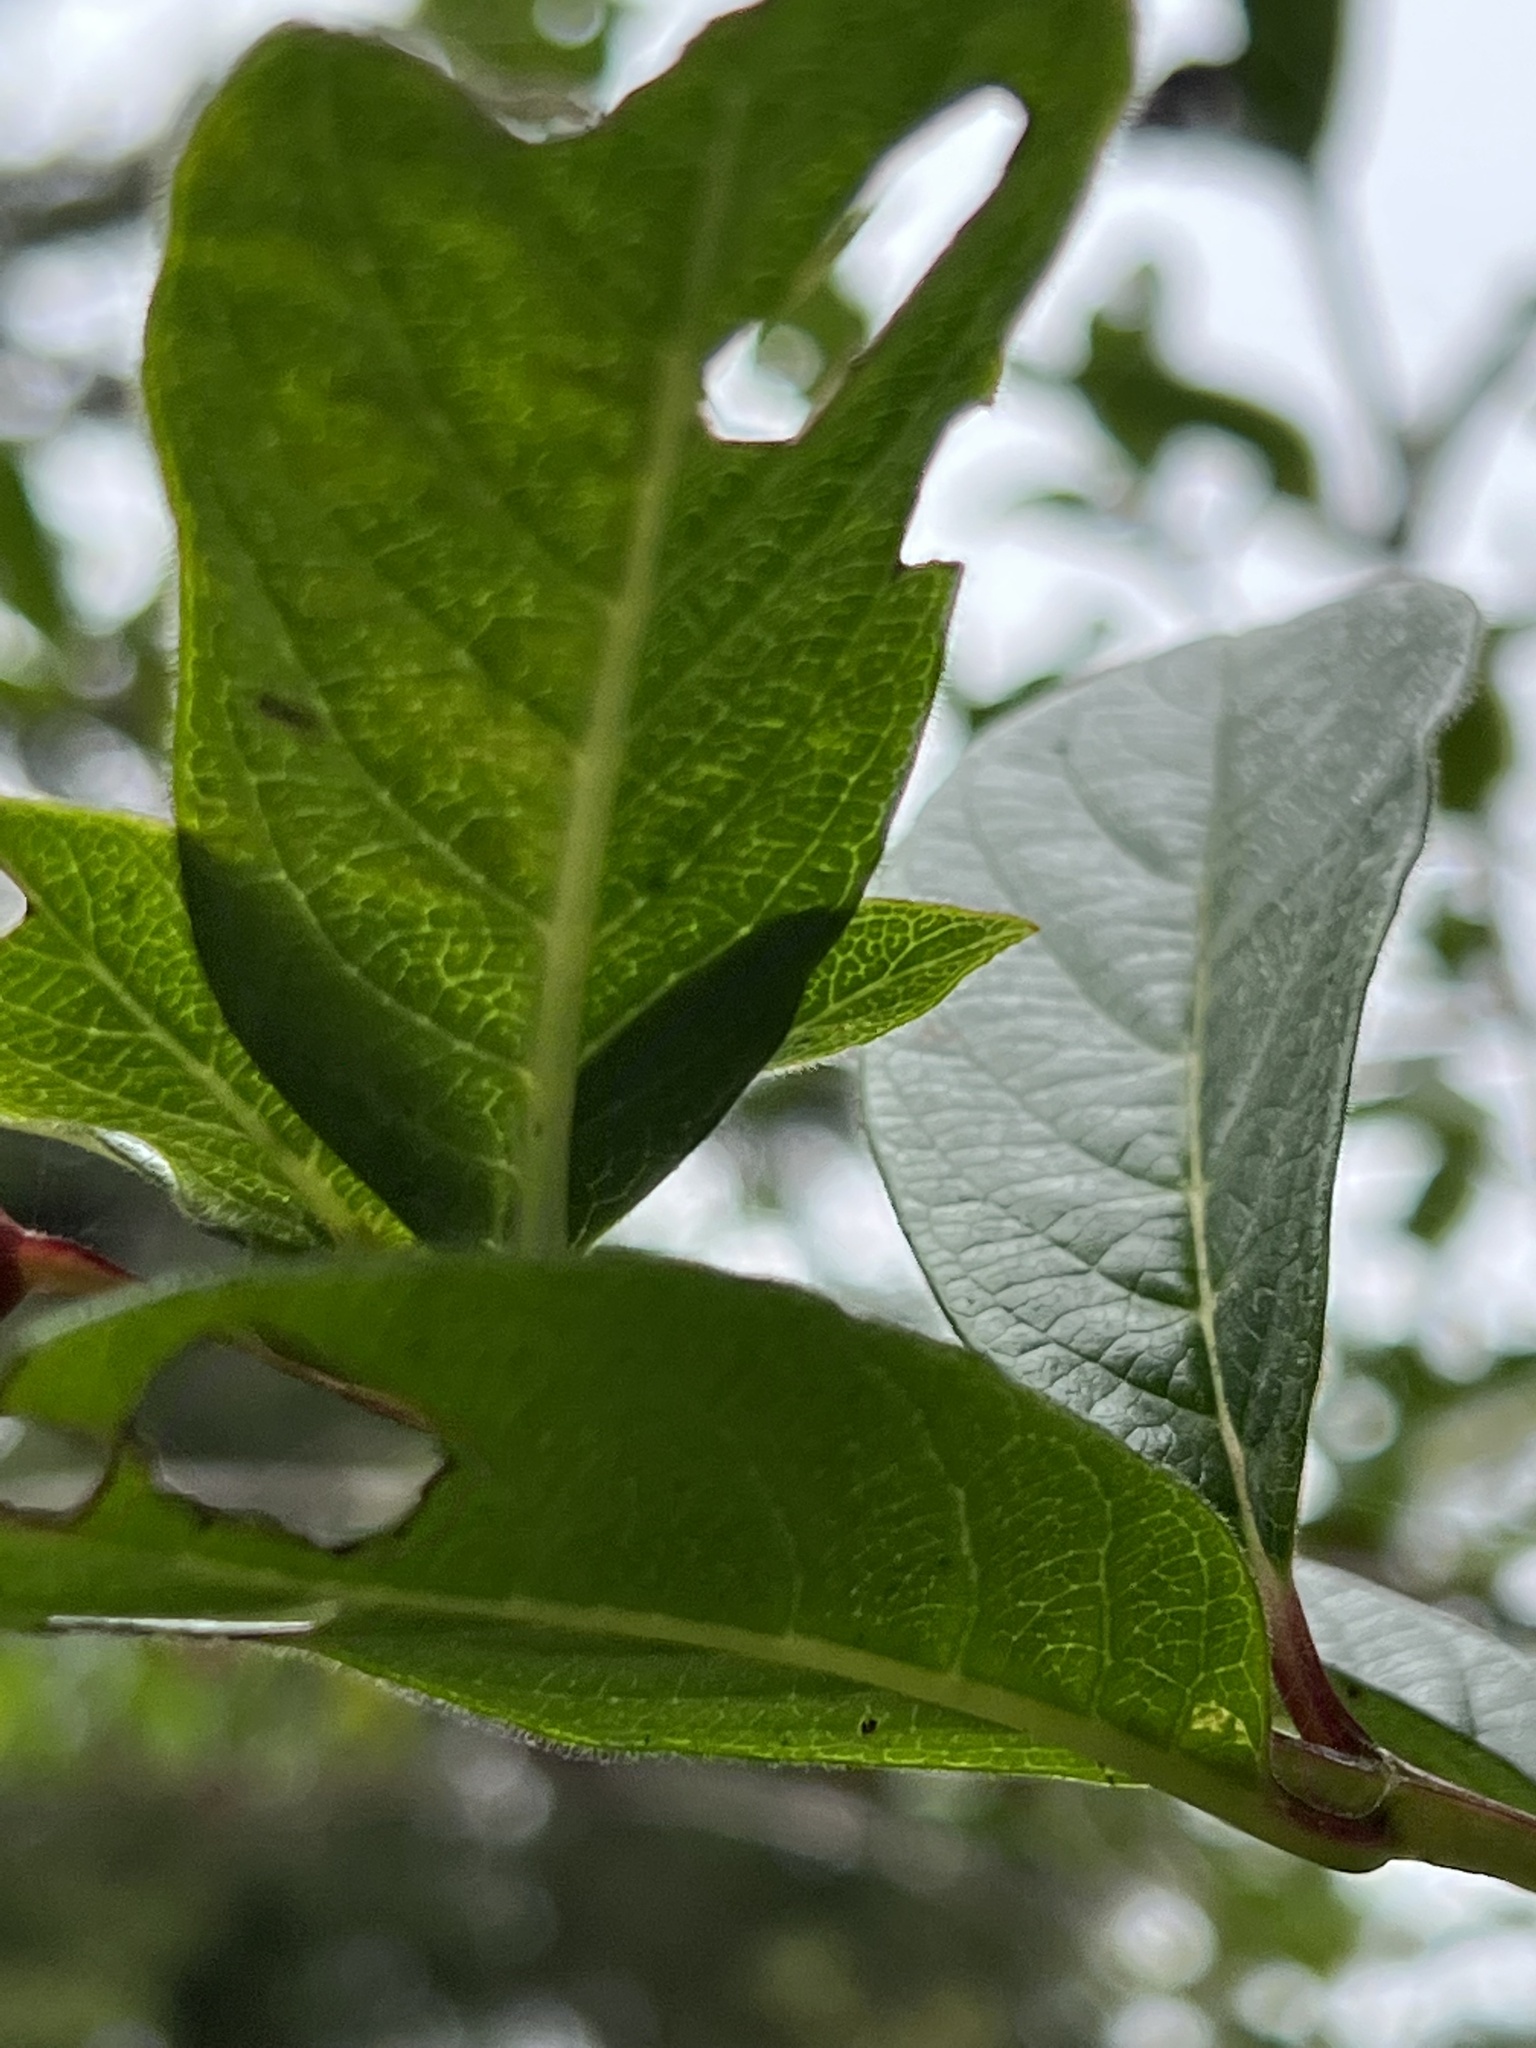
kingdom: Plantae
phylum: Tracheophyta
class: Magnoliopsida
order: Dipsacales
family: Caprifoliaceae
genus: Lonicera
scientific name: Lonicera involucrata
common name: Californian honeysuckle
